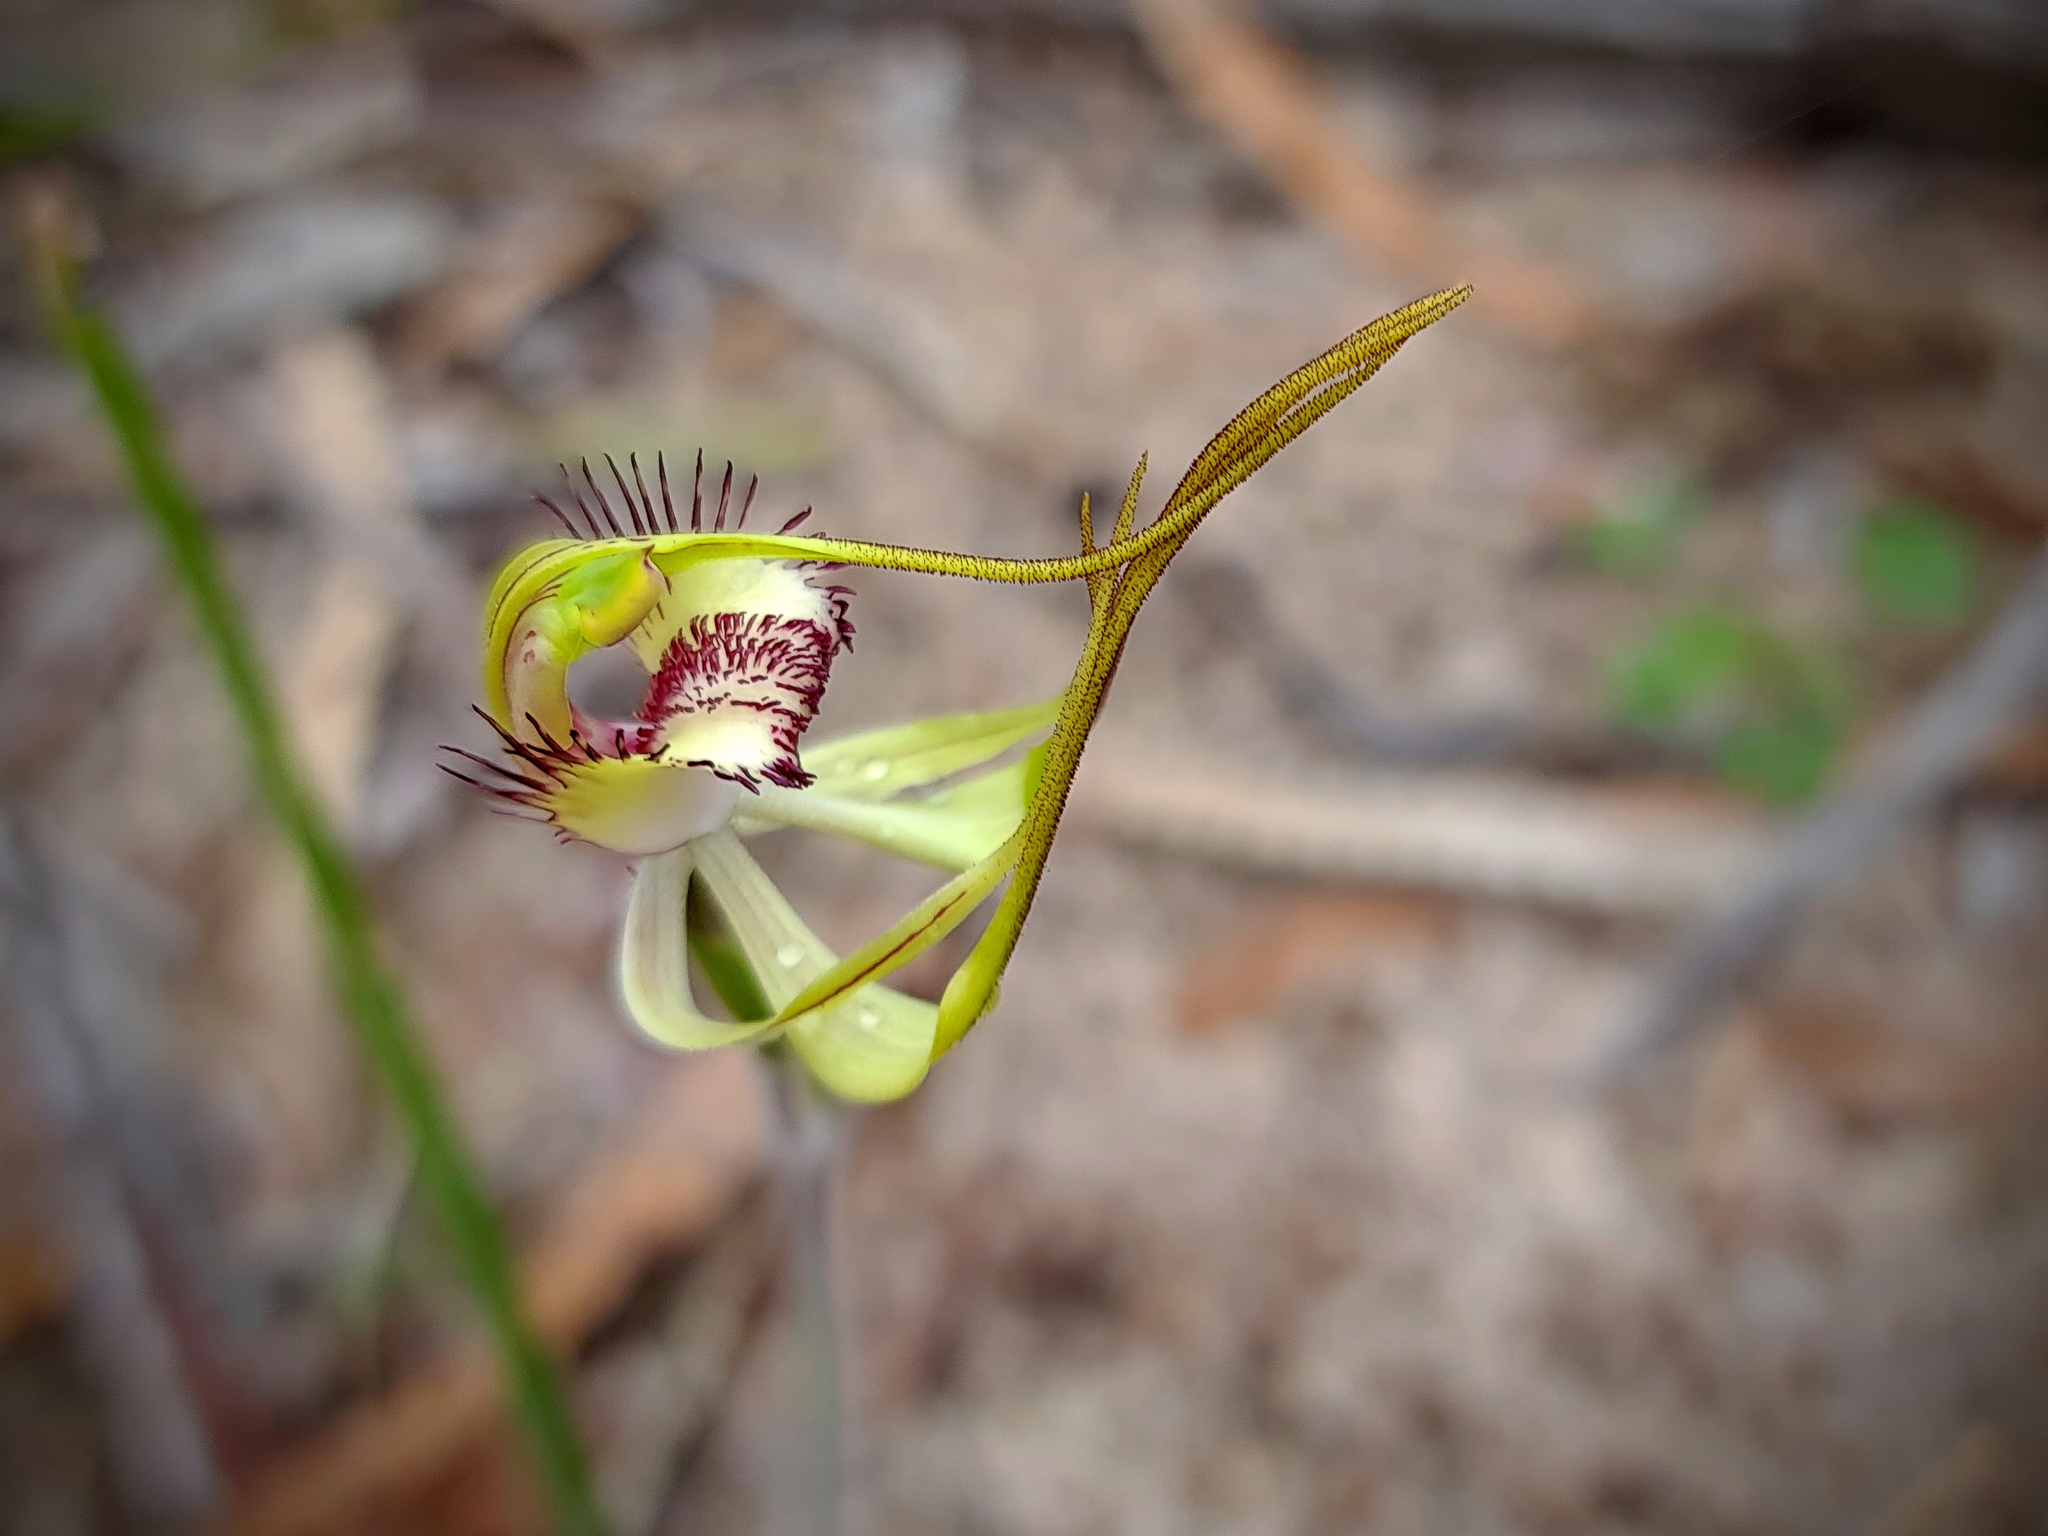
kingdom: Plantae
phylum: Tracheophyta
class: Liliopsida
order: Asparagales
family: Orchidaceae
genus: Caladenia
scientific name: Caladenia coactescens
